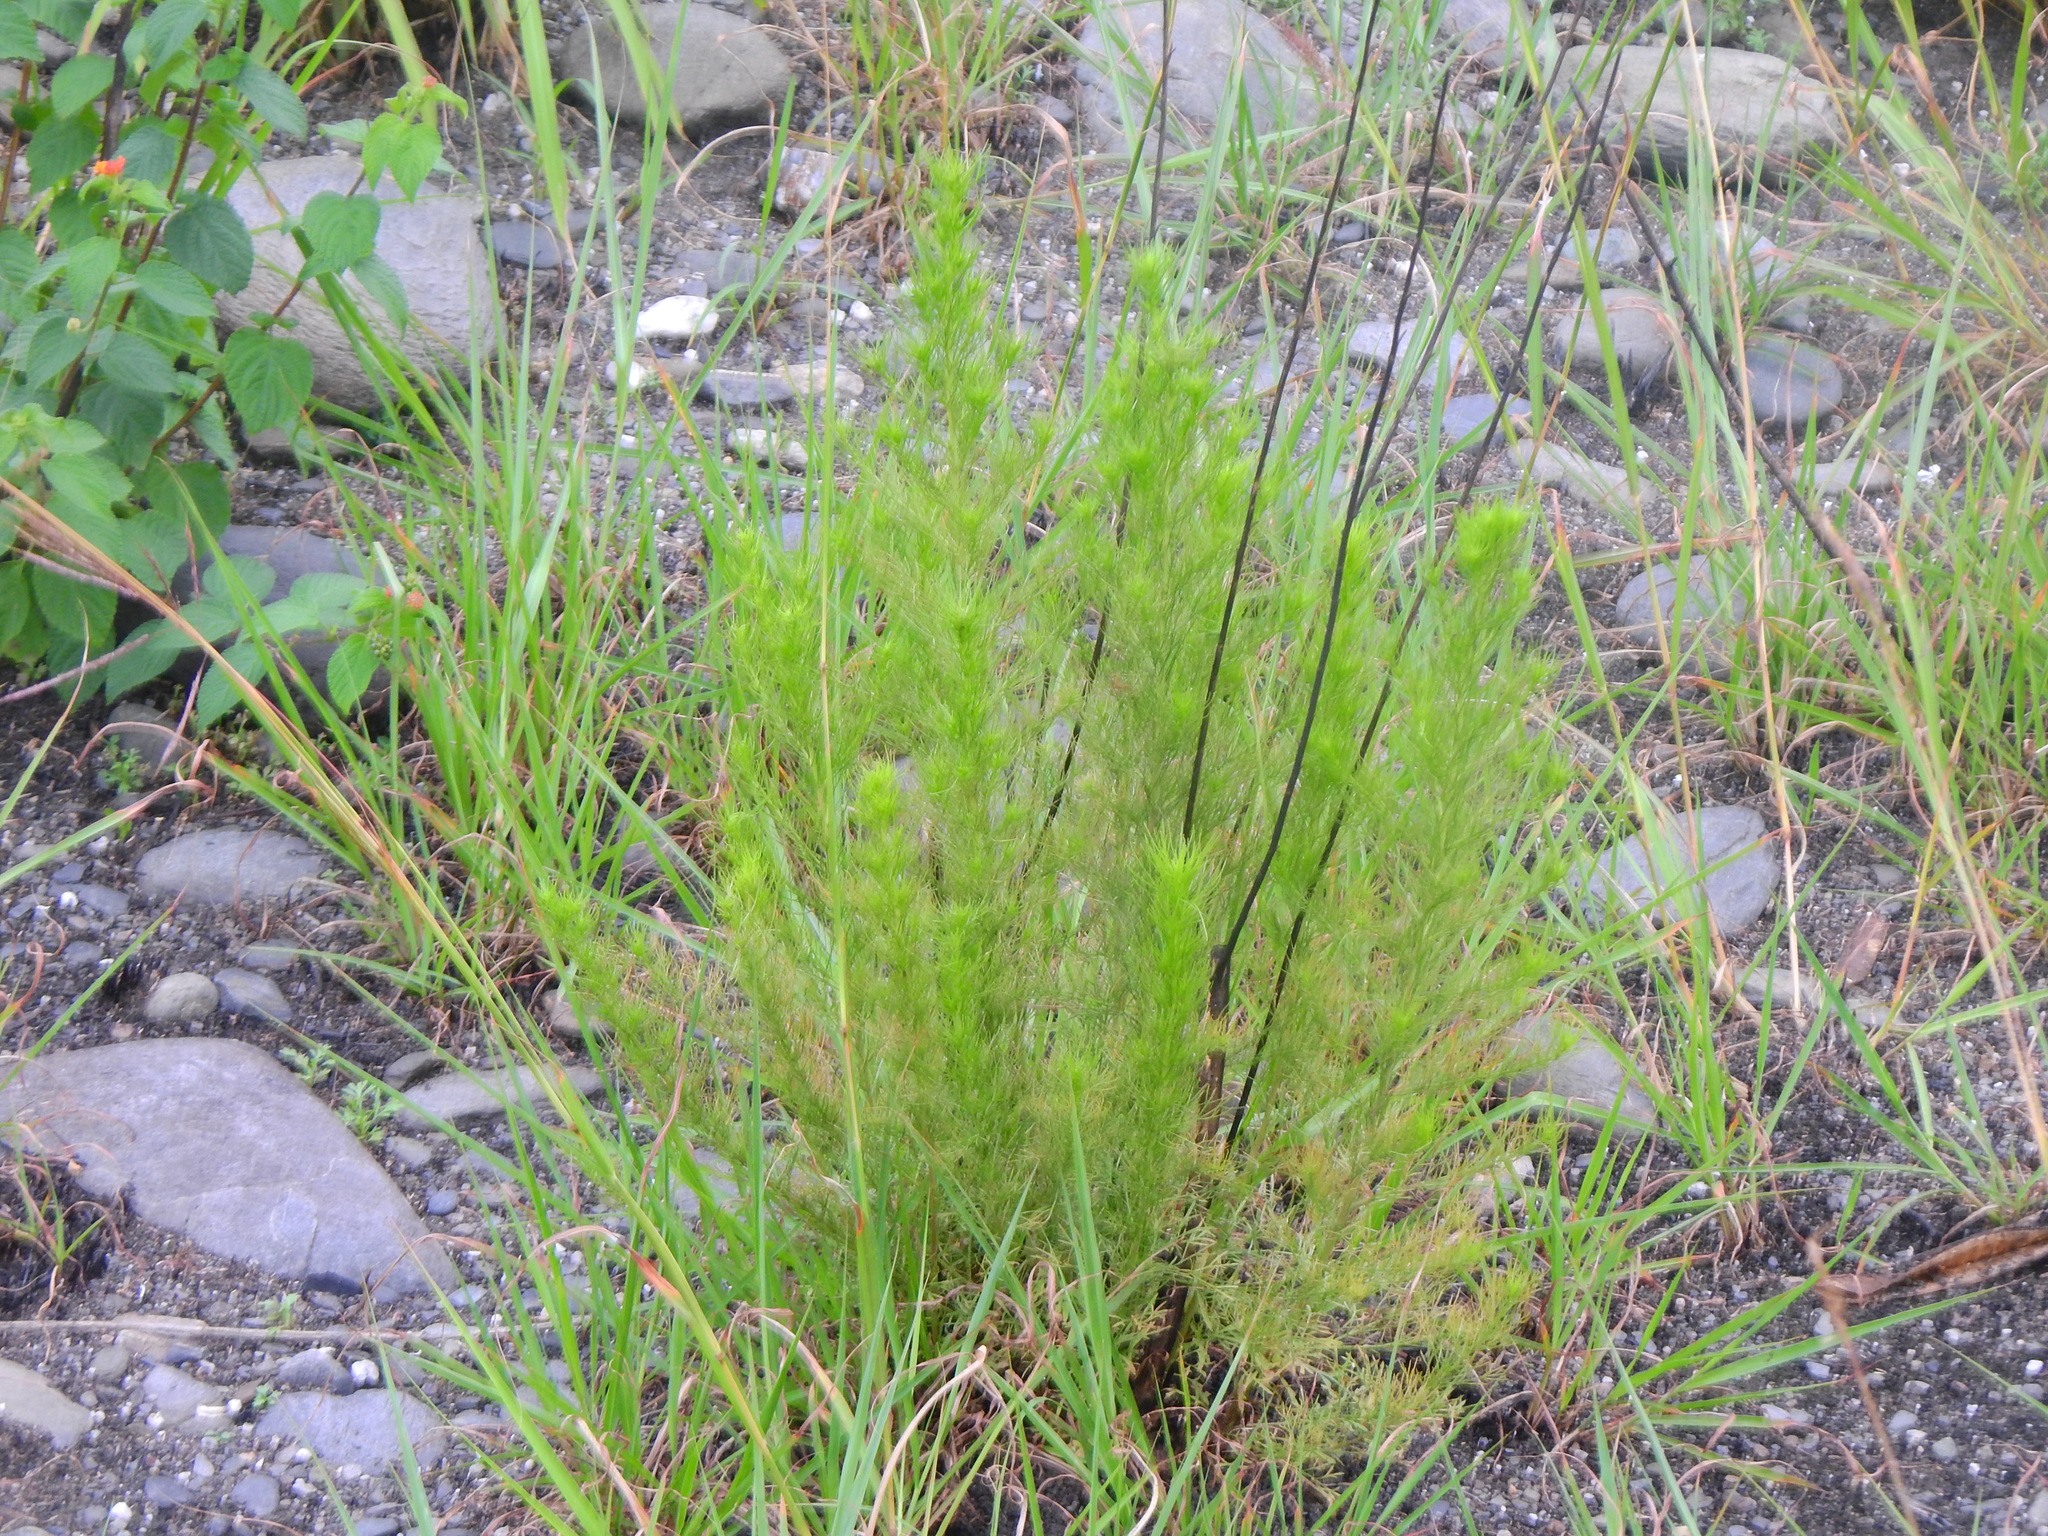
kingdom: Plantae
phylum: Tracheophyta
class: Magnoliopsida
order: Asterales
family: Asteraceae
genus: Artemisia
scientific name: Artemisia capillaris
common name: Yin-chen wormwood
